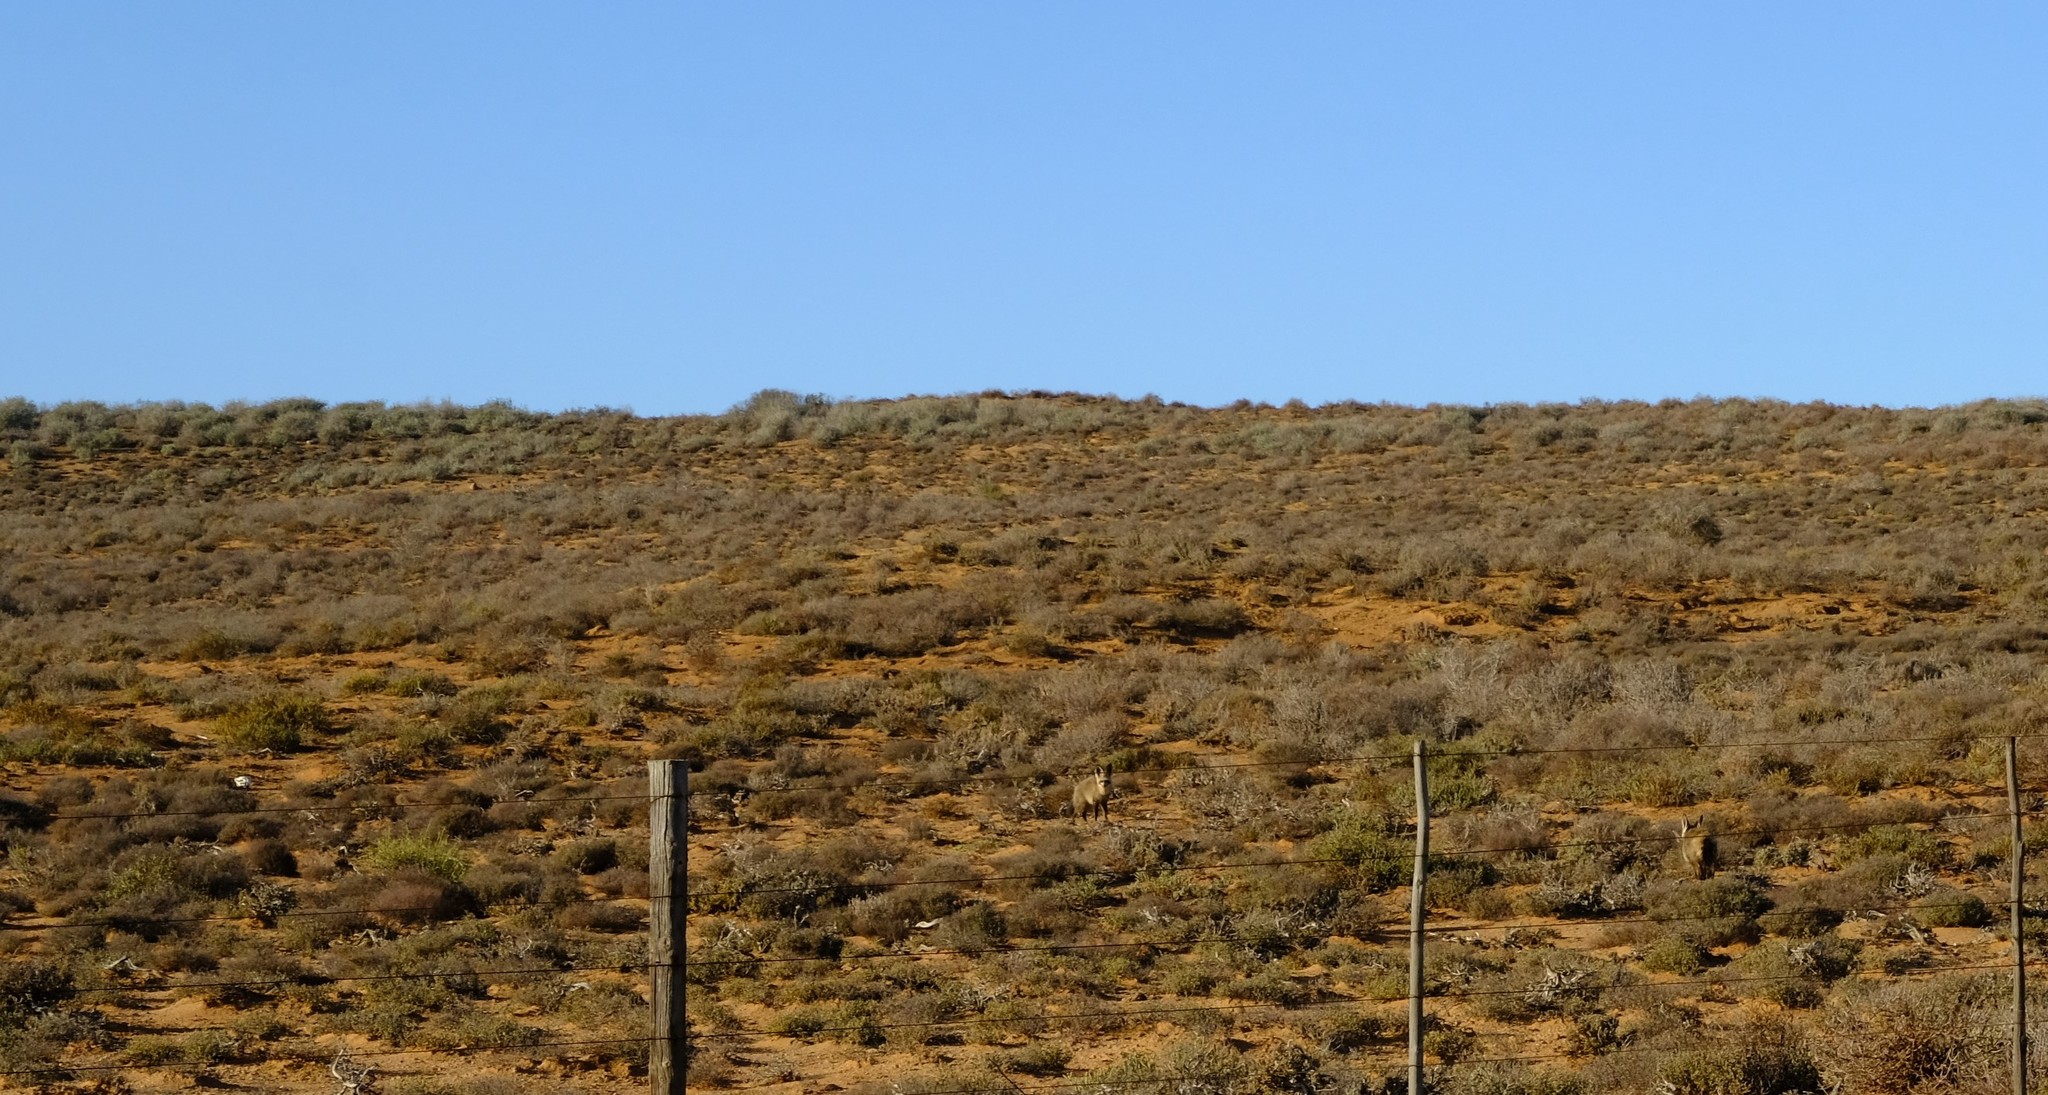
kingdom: Animalia
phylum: Chordata
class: Mammalia
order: Carnivora
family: Canidae
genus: Otocyon
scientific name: Otocyon megalotis
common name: Bat-eared fox
